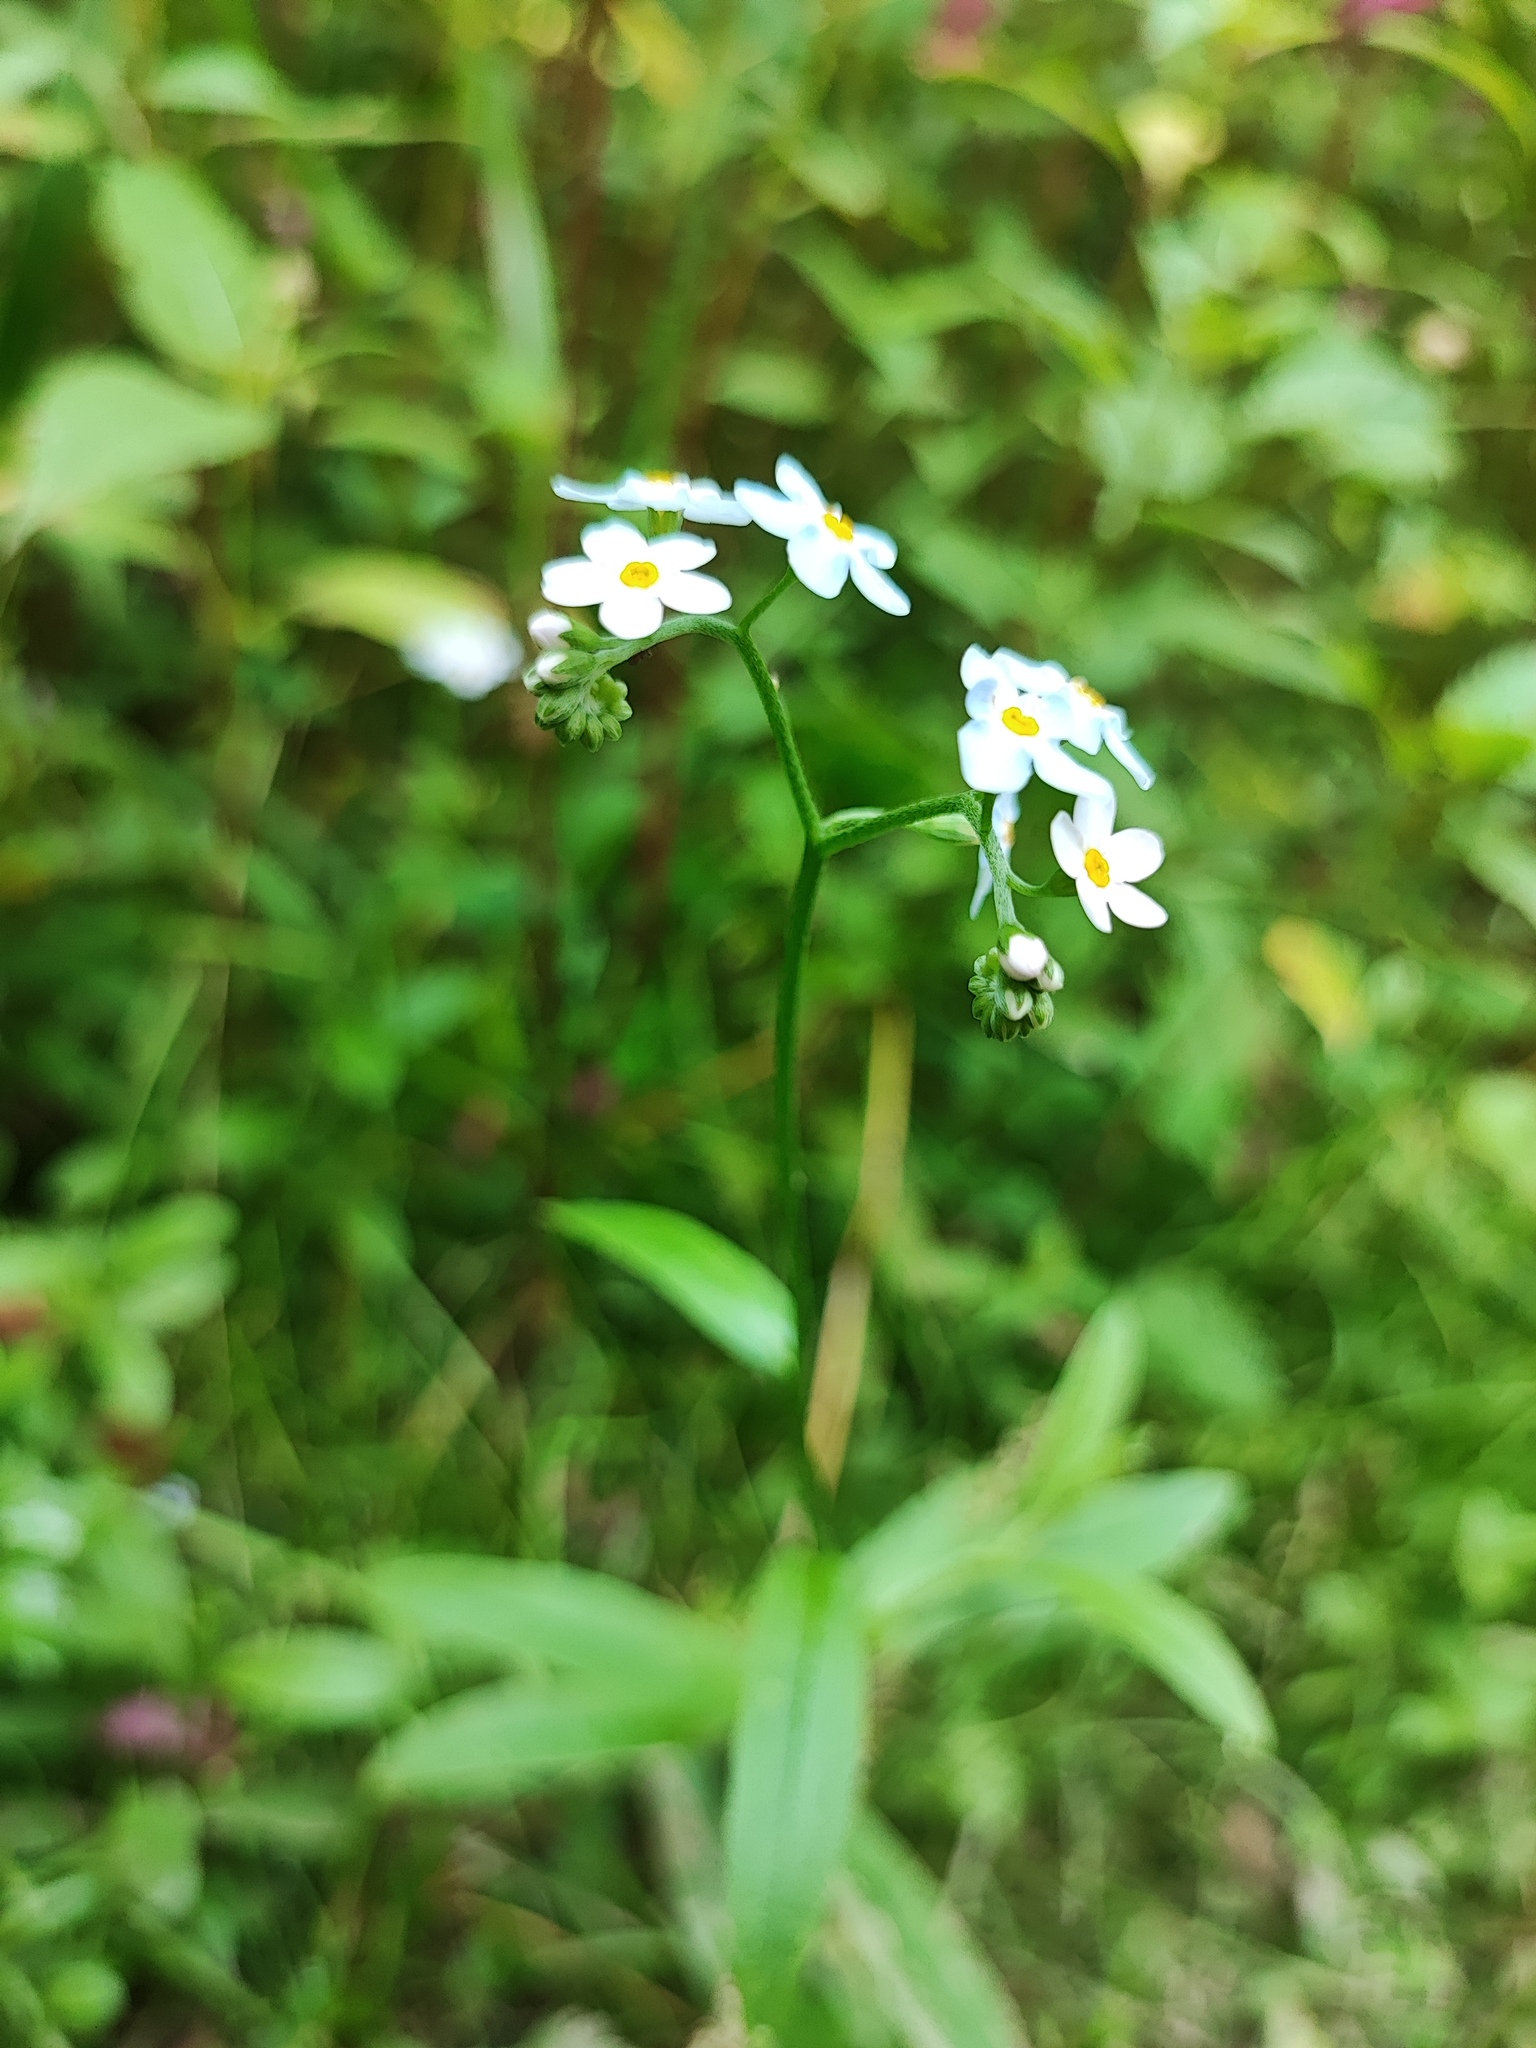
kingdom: Plantae
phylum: Tracheophyta
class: Magnoliopsida
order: Boraginales
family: Boraginaceae
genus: Myosotis
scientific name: Myosotis scorpioides
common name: Water forget-me-not
